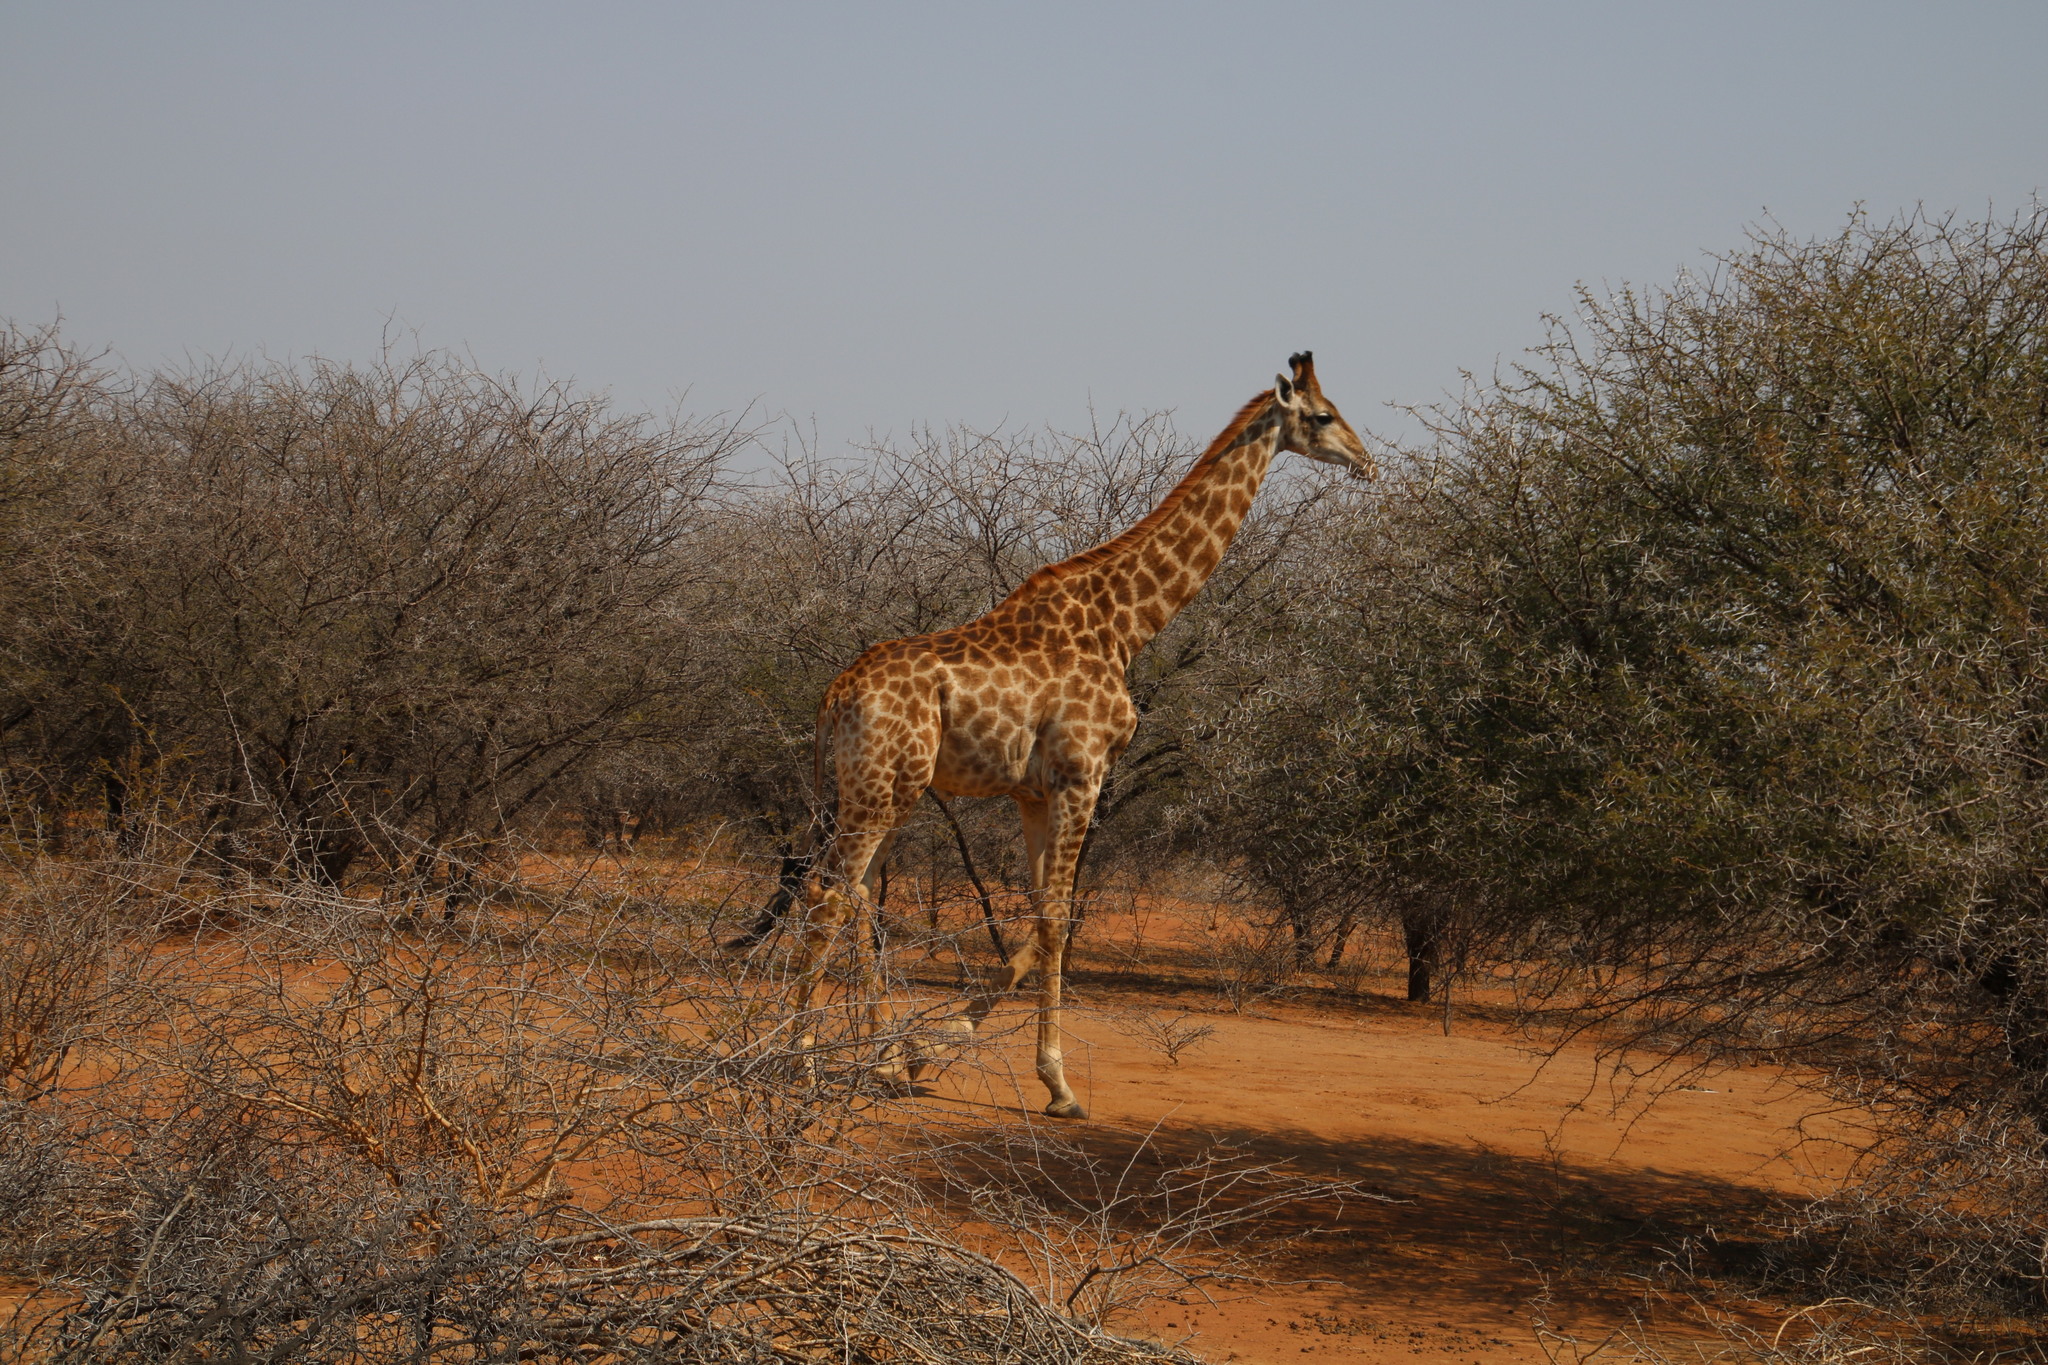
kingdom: Animalia
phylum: Chordata
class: Mammalia
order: Artiodactyla
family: Giraffidae
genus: Giraffa
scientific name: Giraffa giraffa
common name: Southern giraffe
